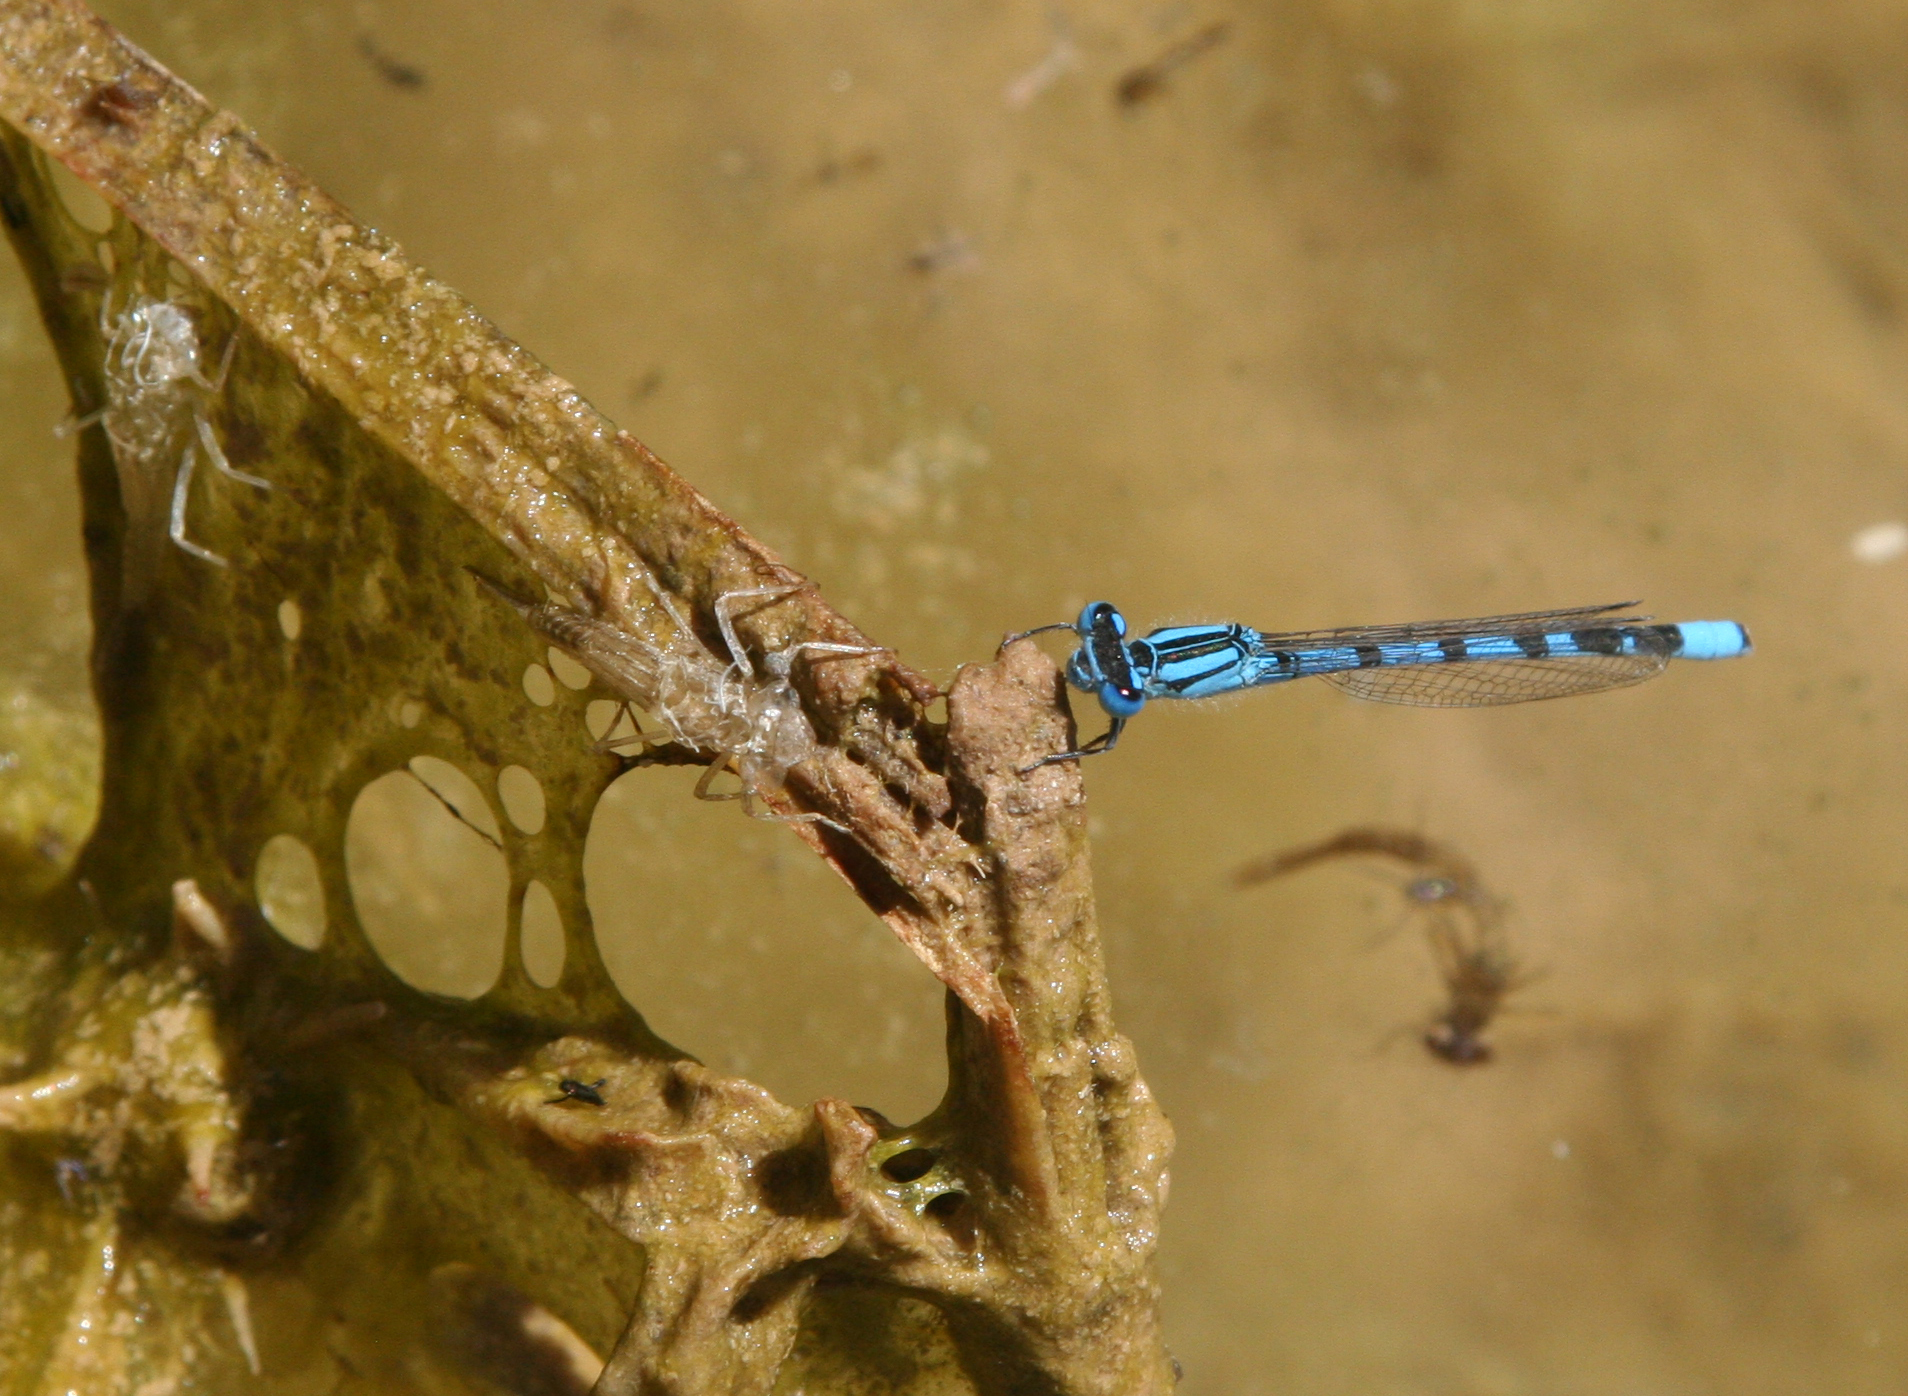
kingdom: Animalia
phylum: Arthropoda
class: Insecta
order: Odonata
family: Coenagrionidae
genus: Enallagma
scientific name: Enallagma cyathigerum
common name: Common blue damselfly
